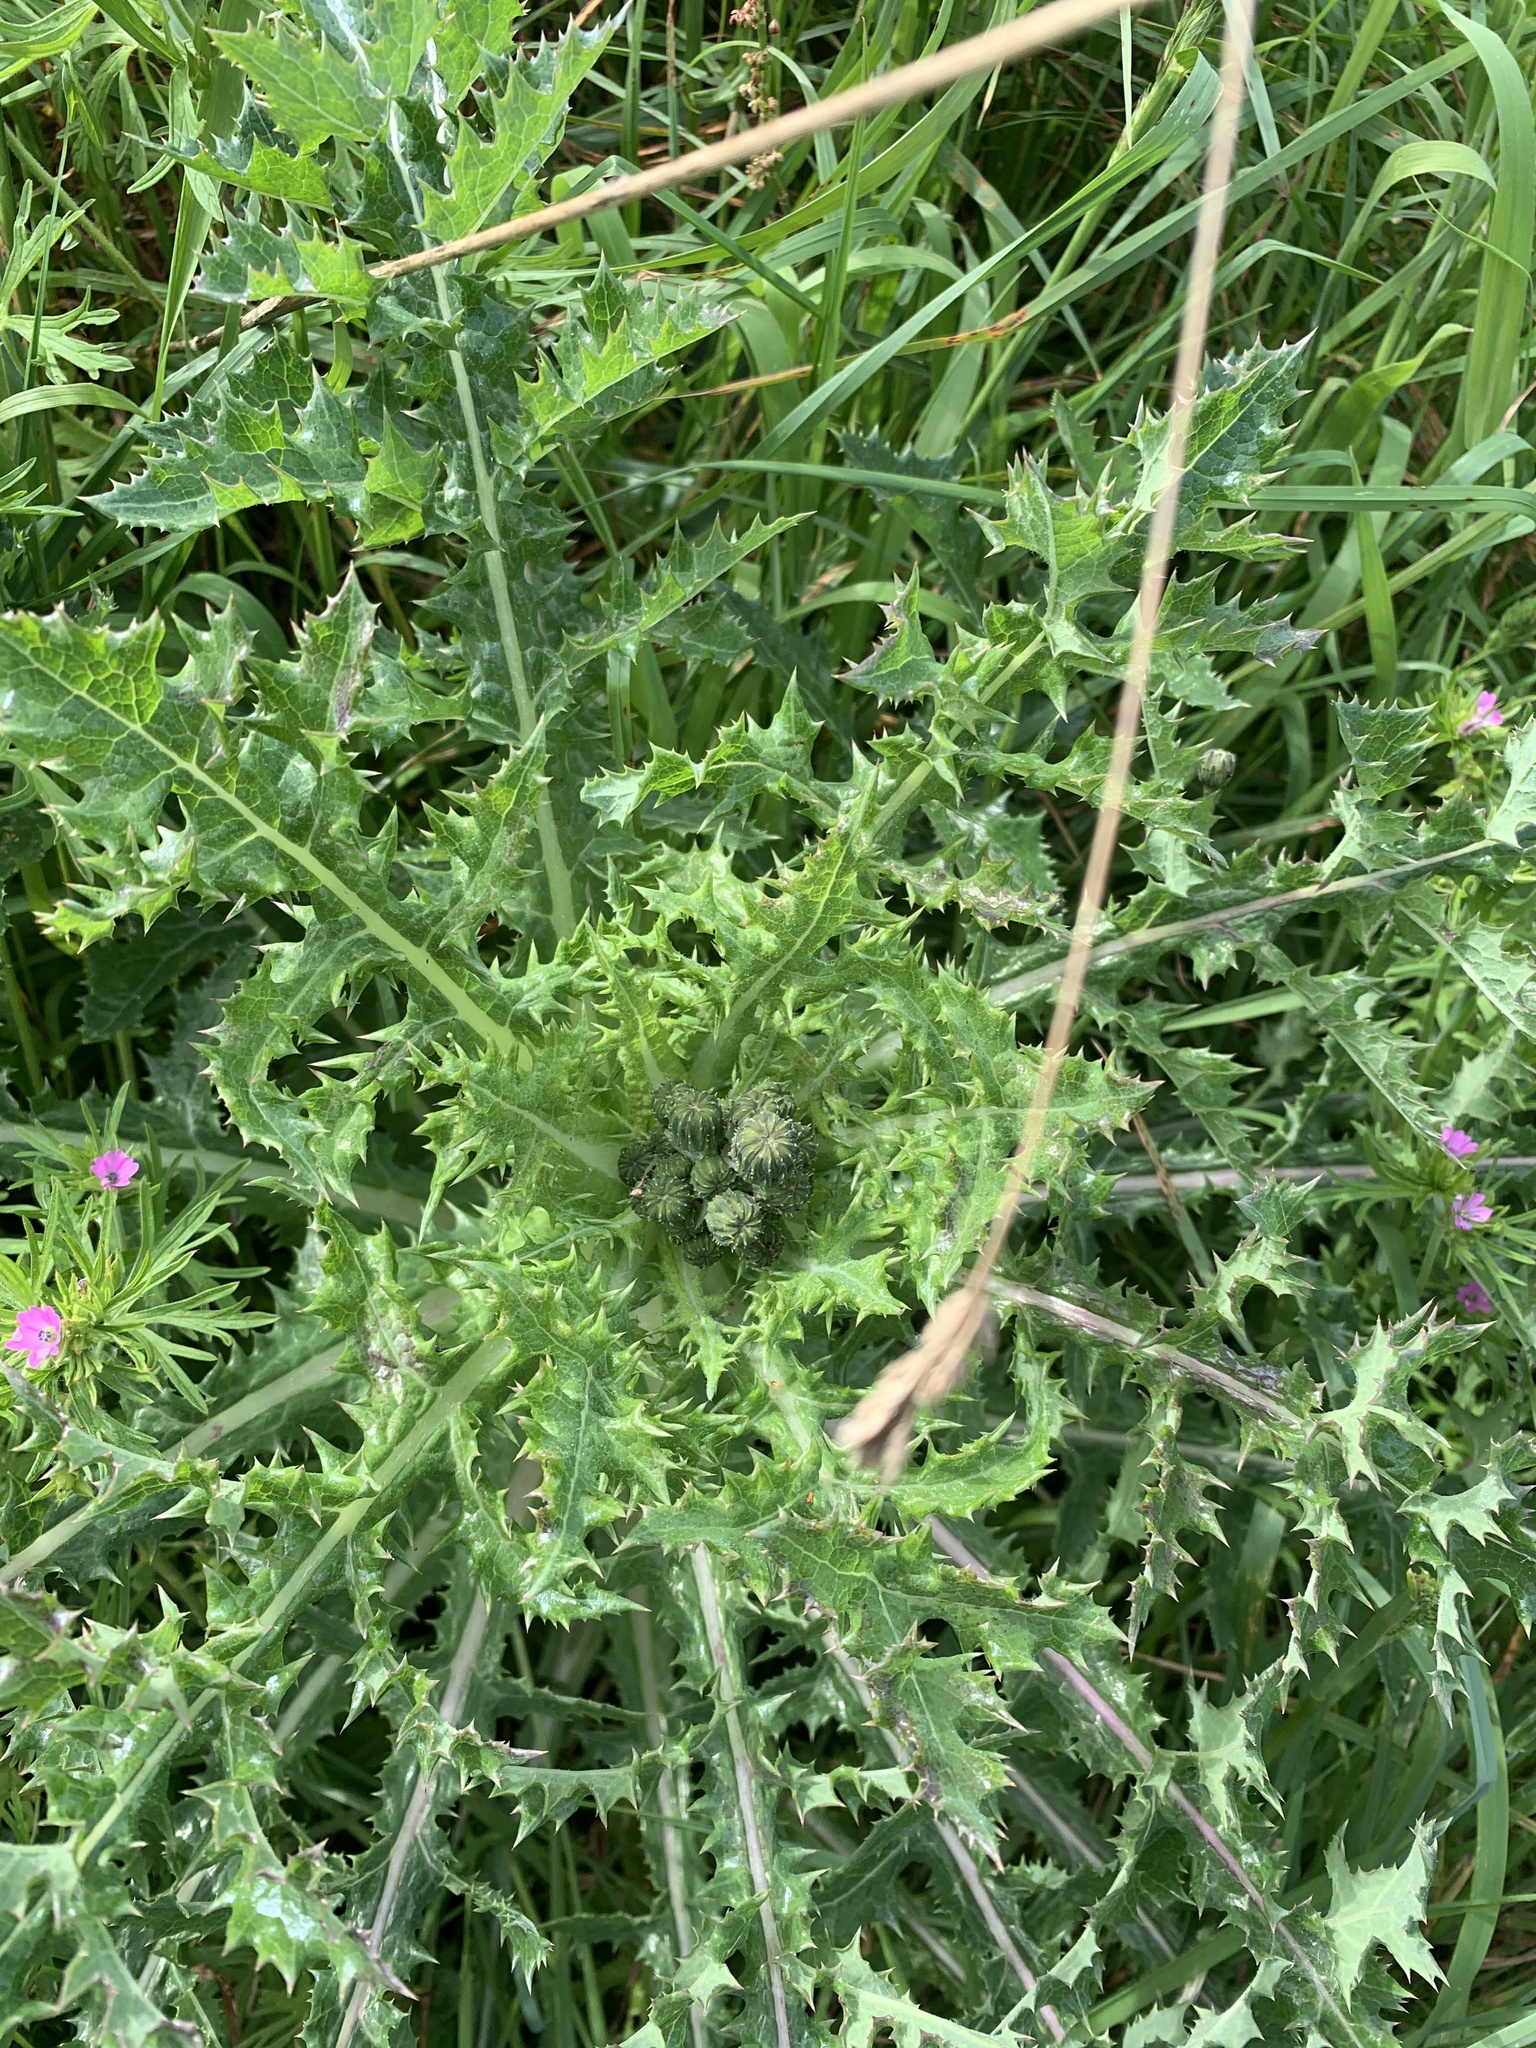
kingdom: Plantae
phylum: Tracheophyta
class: Magnoliopsida
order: Asterales
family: Asteraceae
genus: Sonchus
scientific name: Sonchus asper
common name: Prickly sow-thistle
